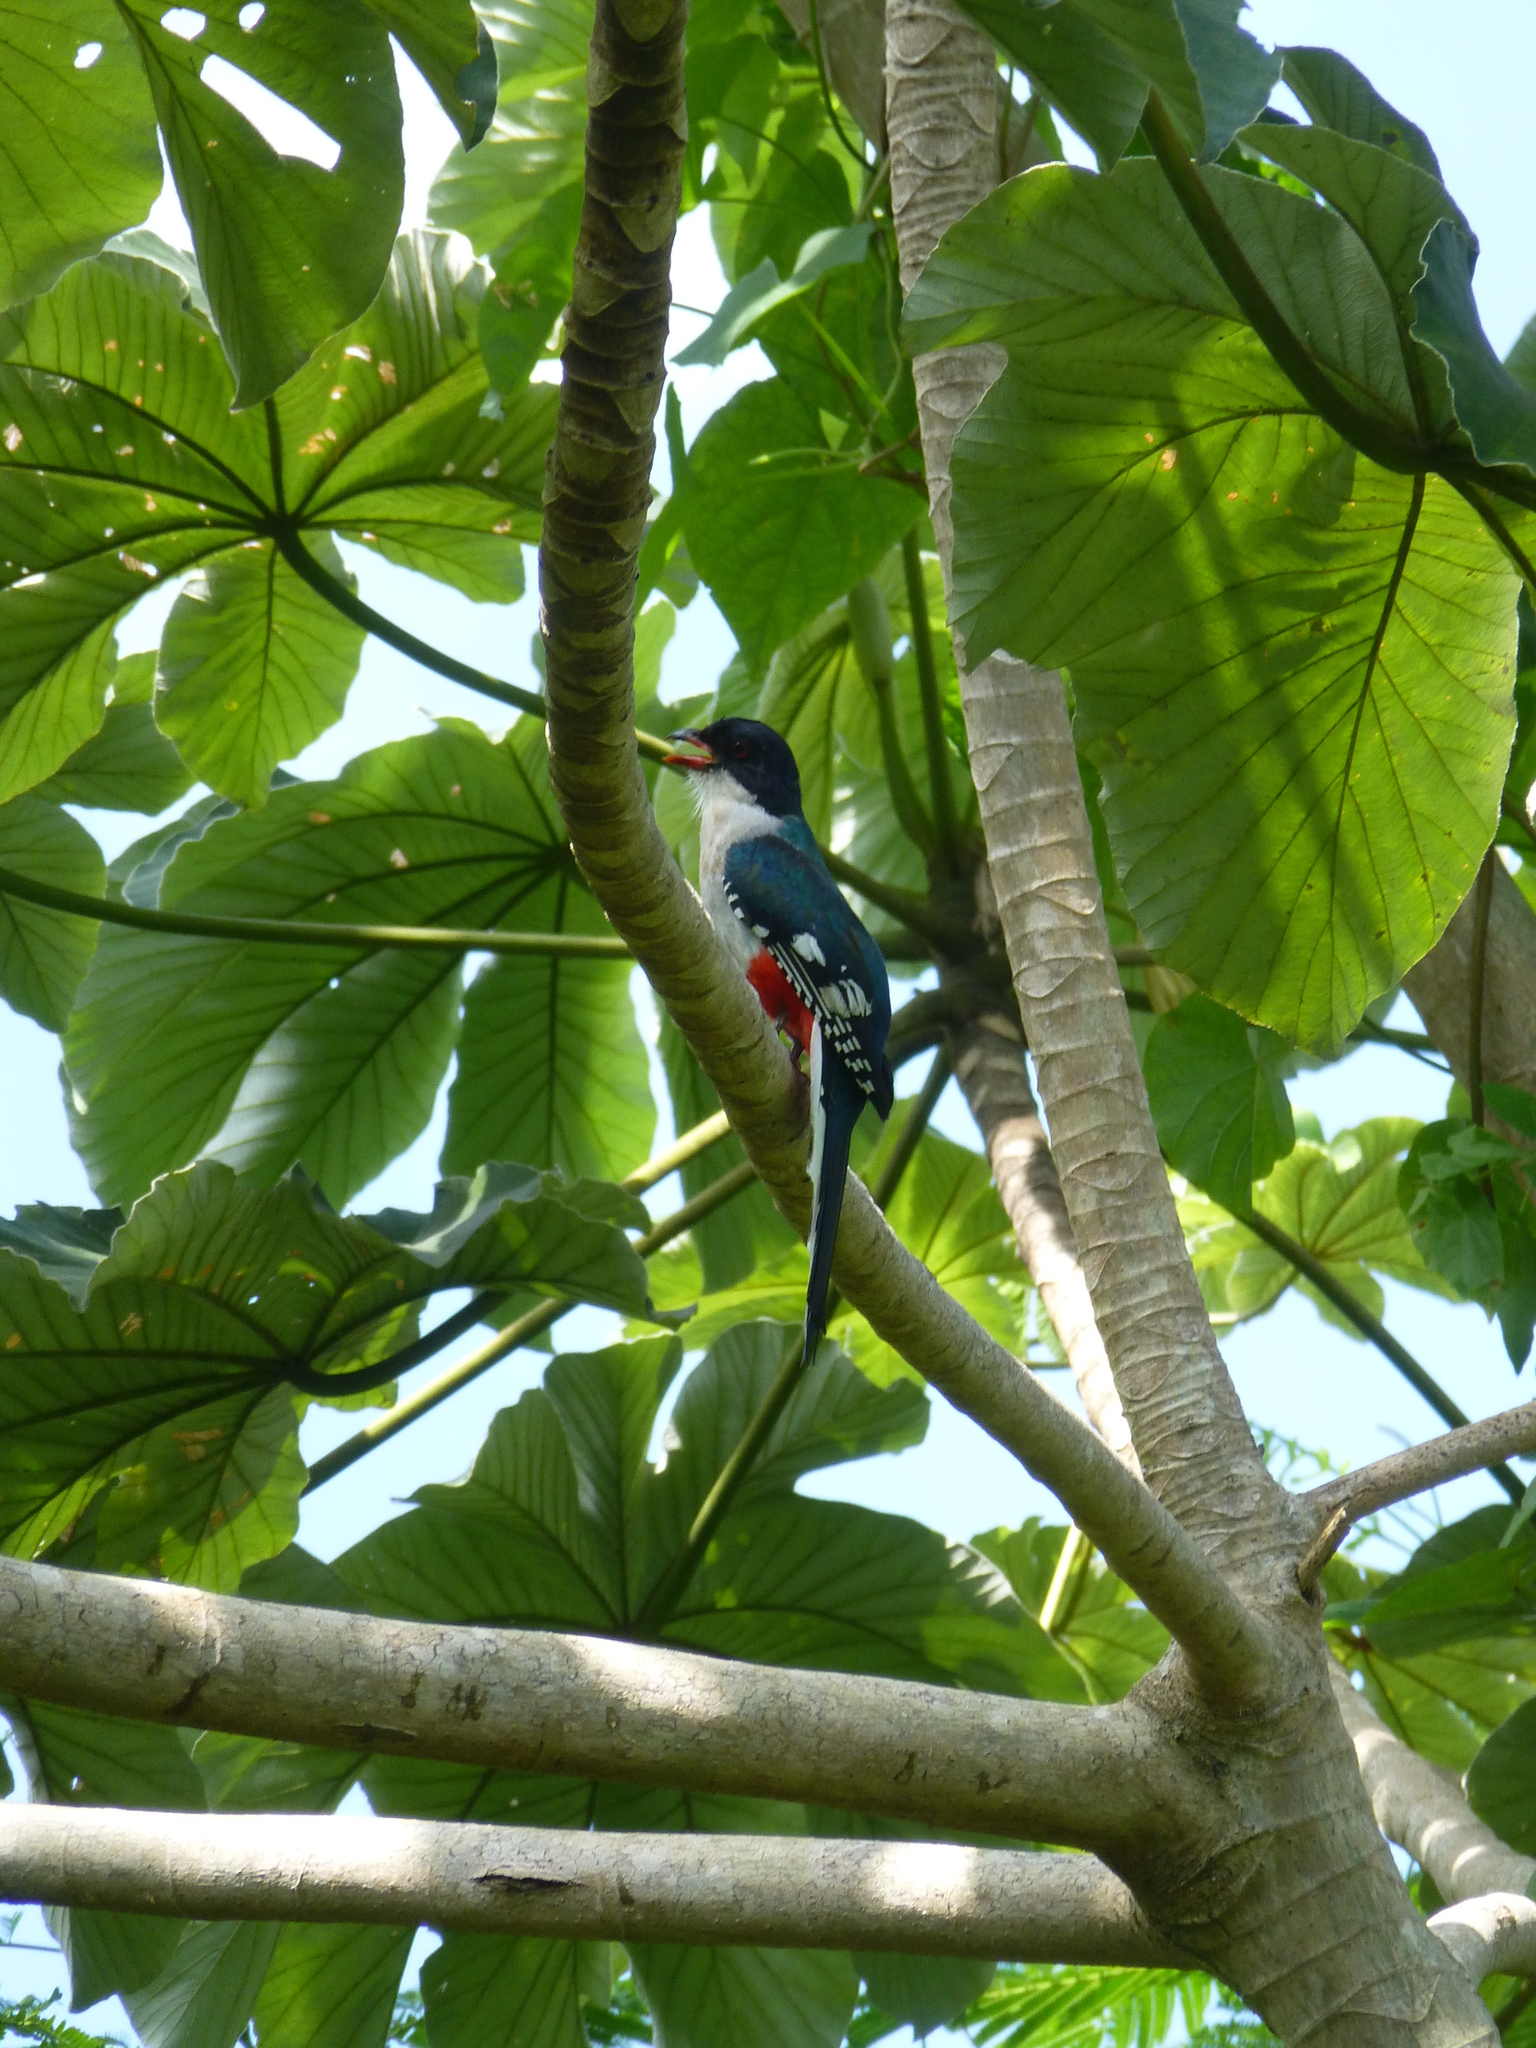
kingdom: Animalia
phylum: Chordata
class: Aves
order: Trogoniformes
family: Trogonidae
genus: Priotelus
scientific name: Priotelus temnurus
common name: Cuban trogon
